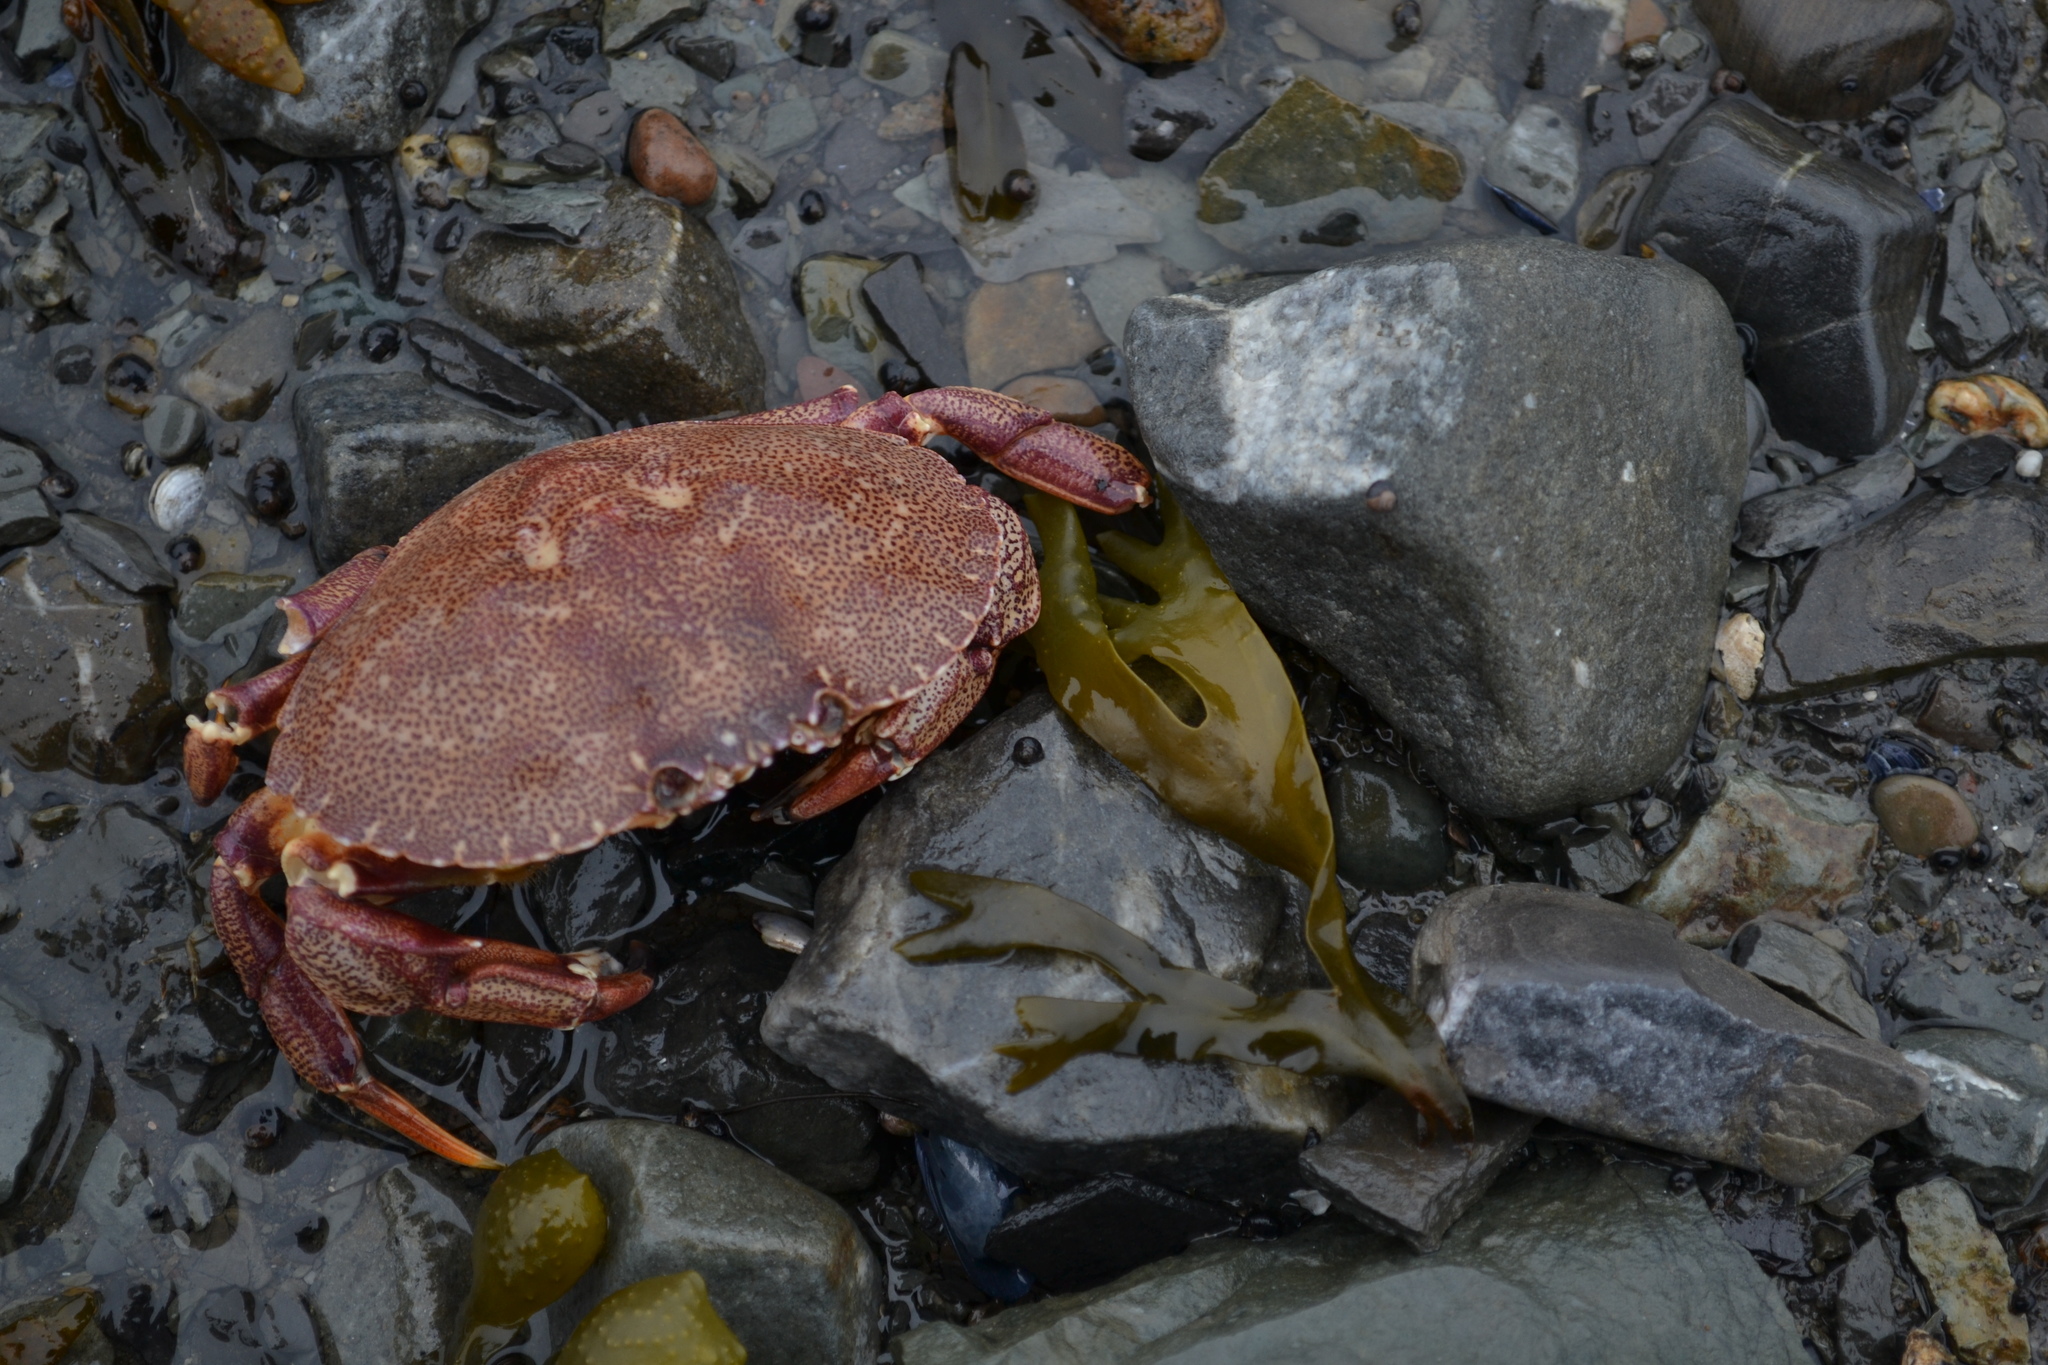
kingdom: Animalia
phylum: Arthropoda
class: Malacostraca
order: Decapoda
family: Cancridae
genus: Cancer
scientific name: Cancer irroratus
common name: Atlantic rock crab
